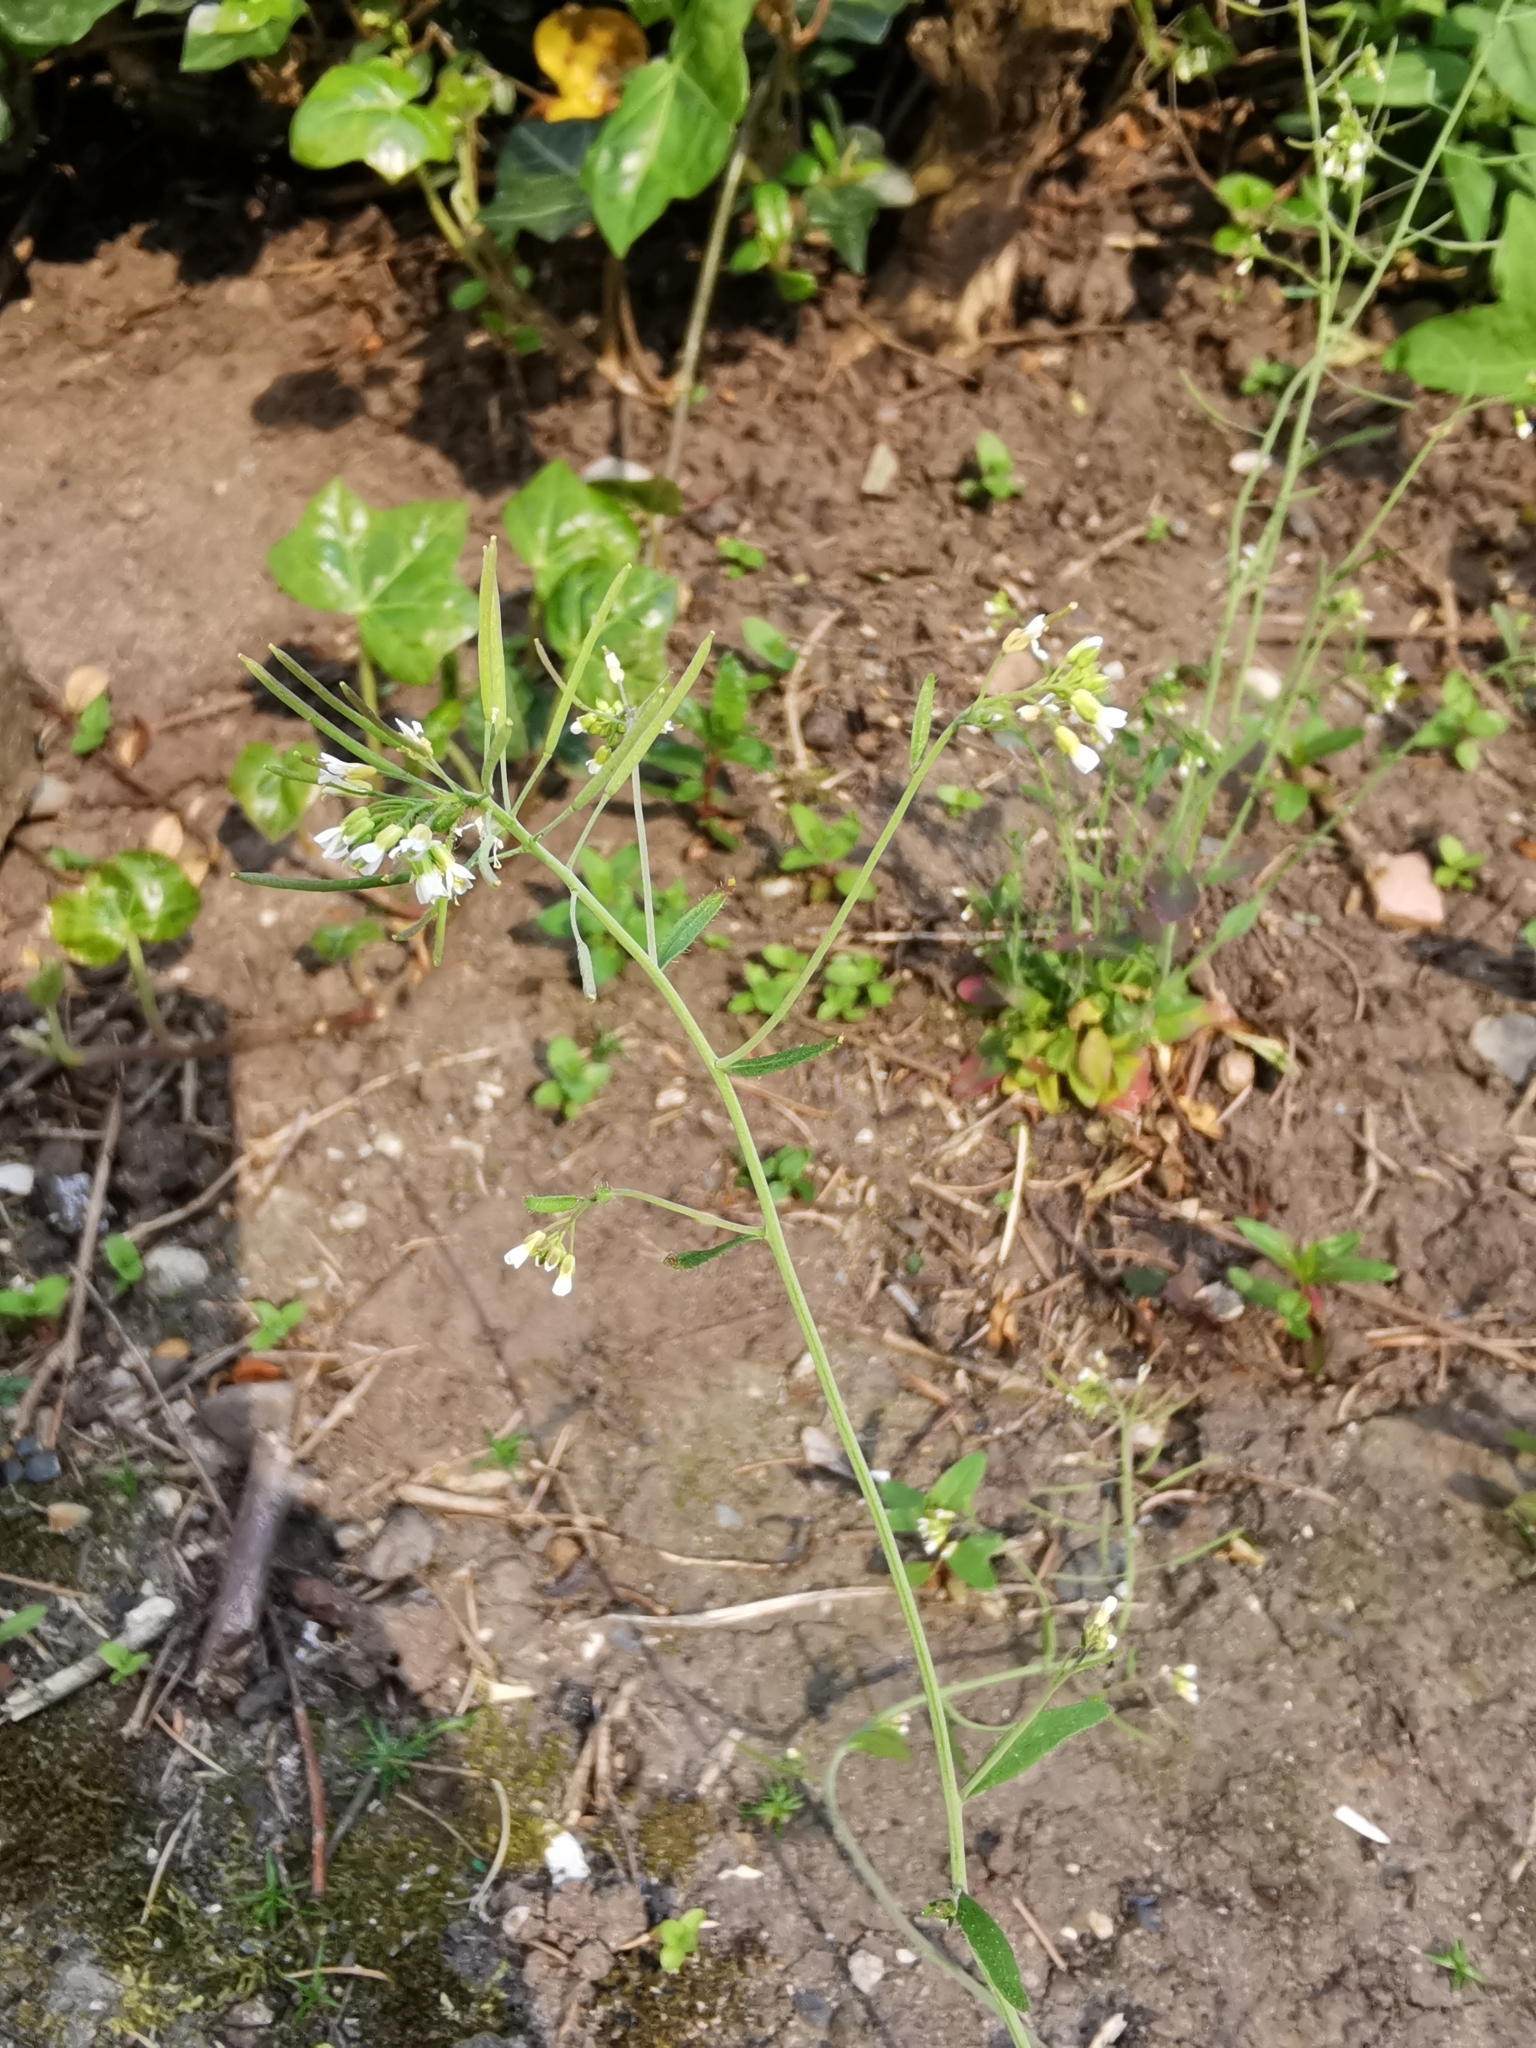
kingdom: Plantae
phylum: Tracheophyta
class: Magnoliopsida
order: Brassicales
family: Brassicaceae
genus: Arabidopsis
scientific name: Arabidopsis thaliana
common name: Thale cress
